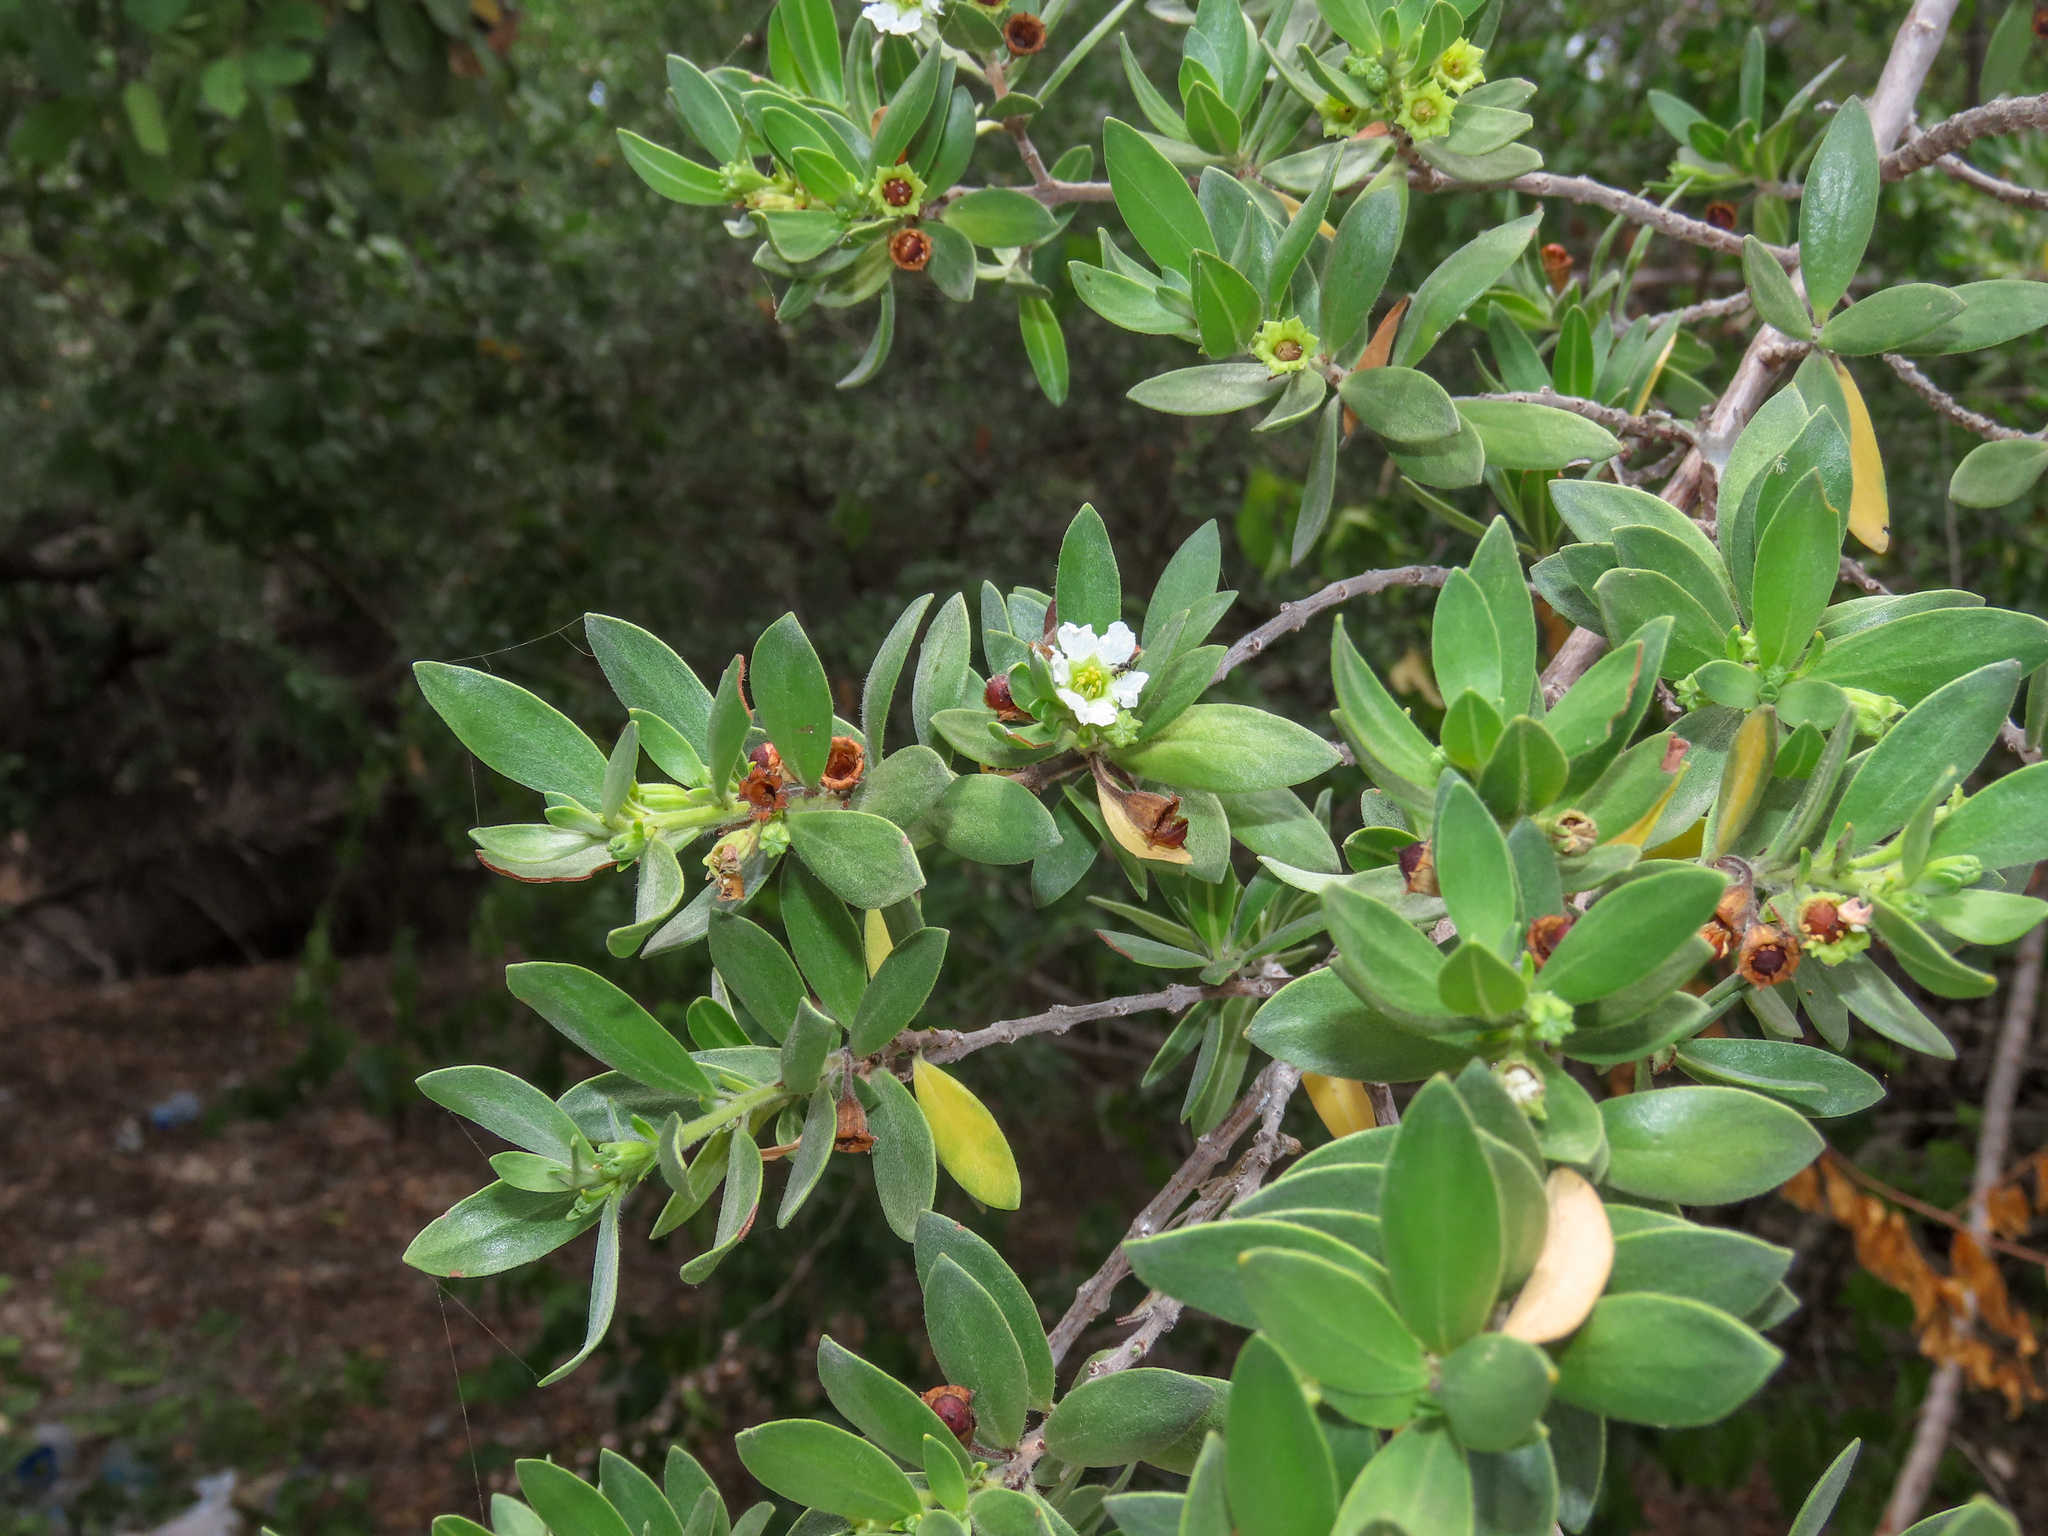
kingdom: Plantae
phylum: Tracheophyta
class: Magnoliopsida
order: Myrtales
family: Lythraceae
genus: Pemphis
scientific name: Pemphis acidula
